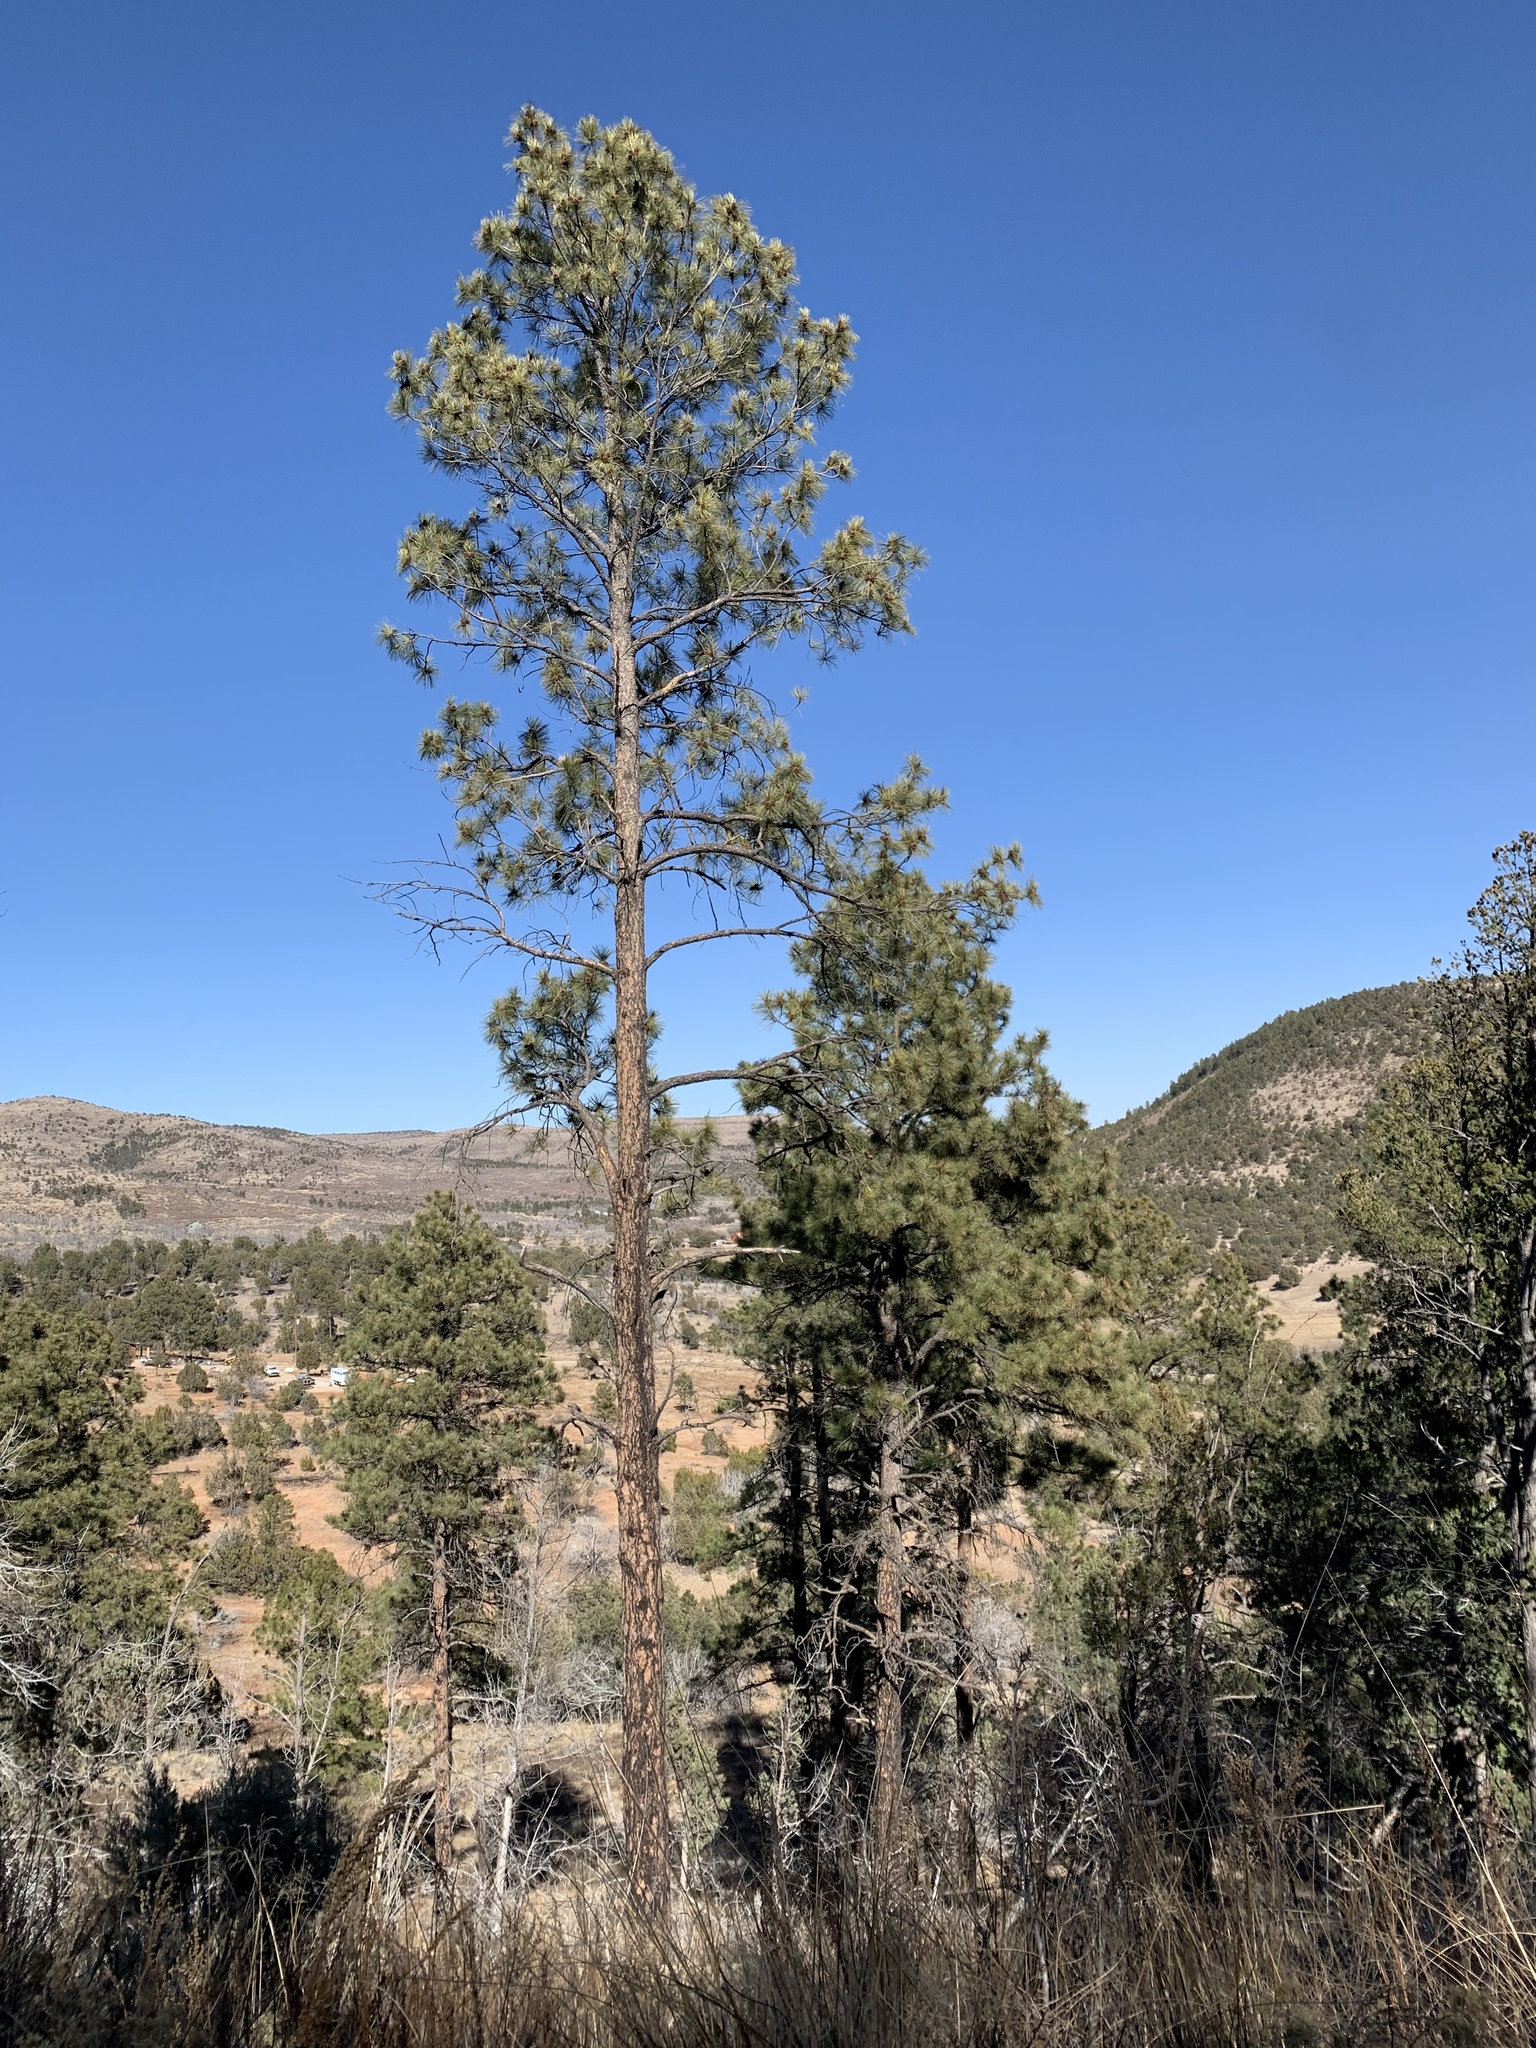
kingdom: Plantae
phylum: Tracheophyta
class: Pinopsida
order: Pinales
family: Pinaceae
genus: Pinus
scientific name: Pinus ponderosa
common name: Western yellow-pine
